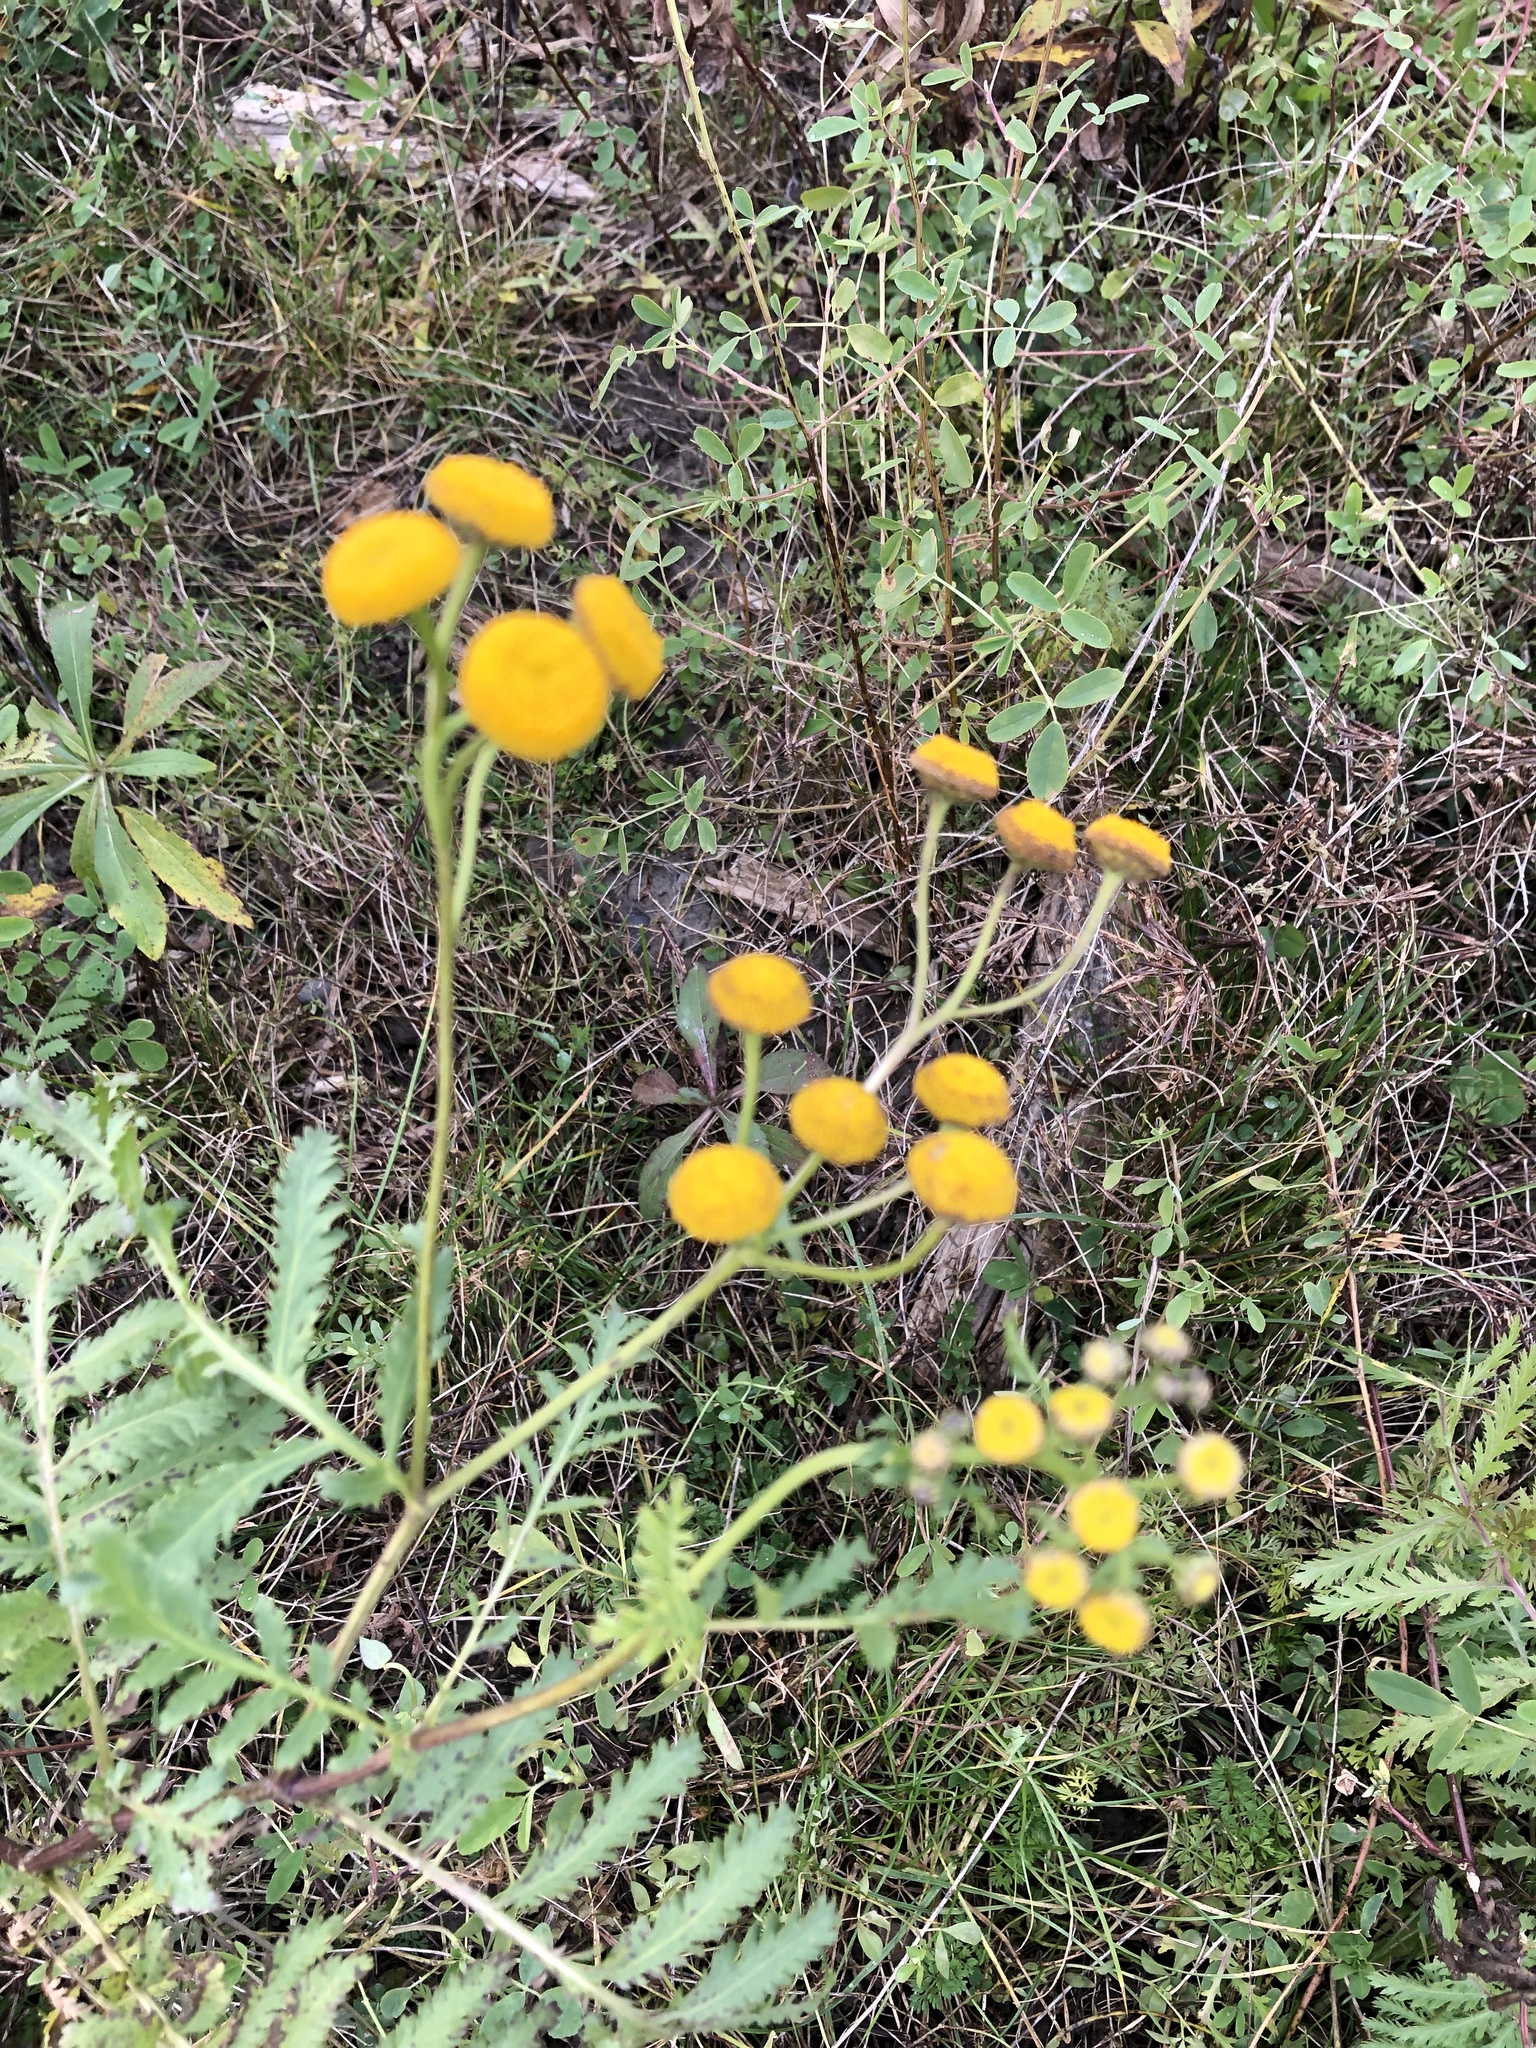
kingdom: Plantae
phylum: Tracheophyta
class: Magnoliopsida
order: Asterales
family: Asteraceae
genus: Tanacetum
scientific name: Tanacetum vulgare
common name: Common tansy
